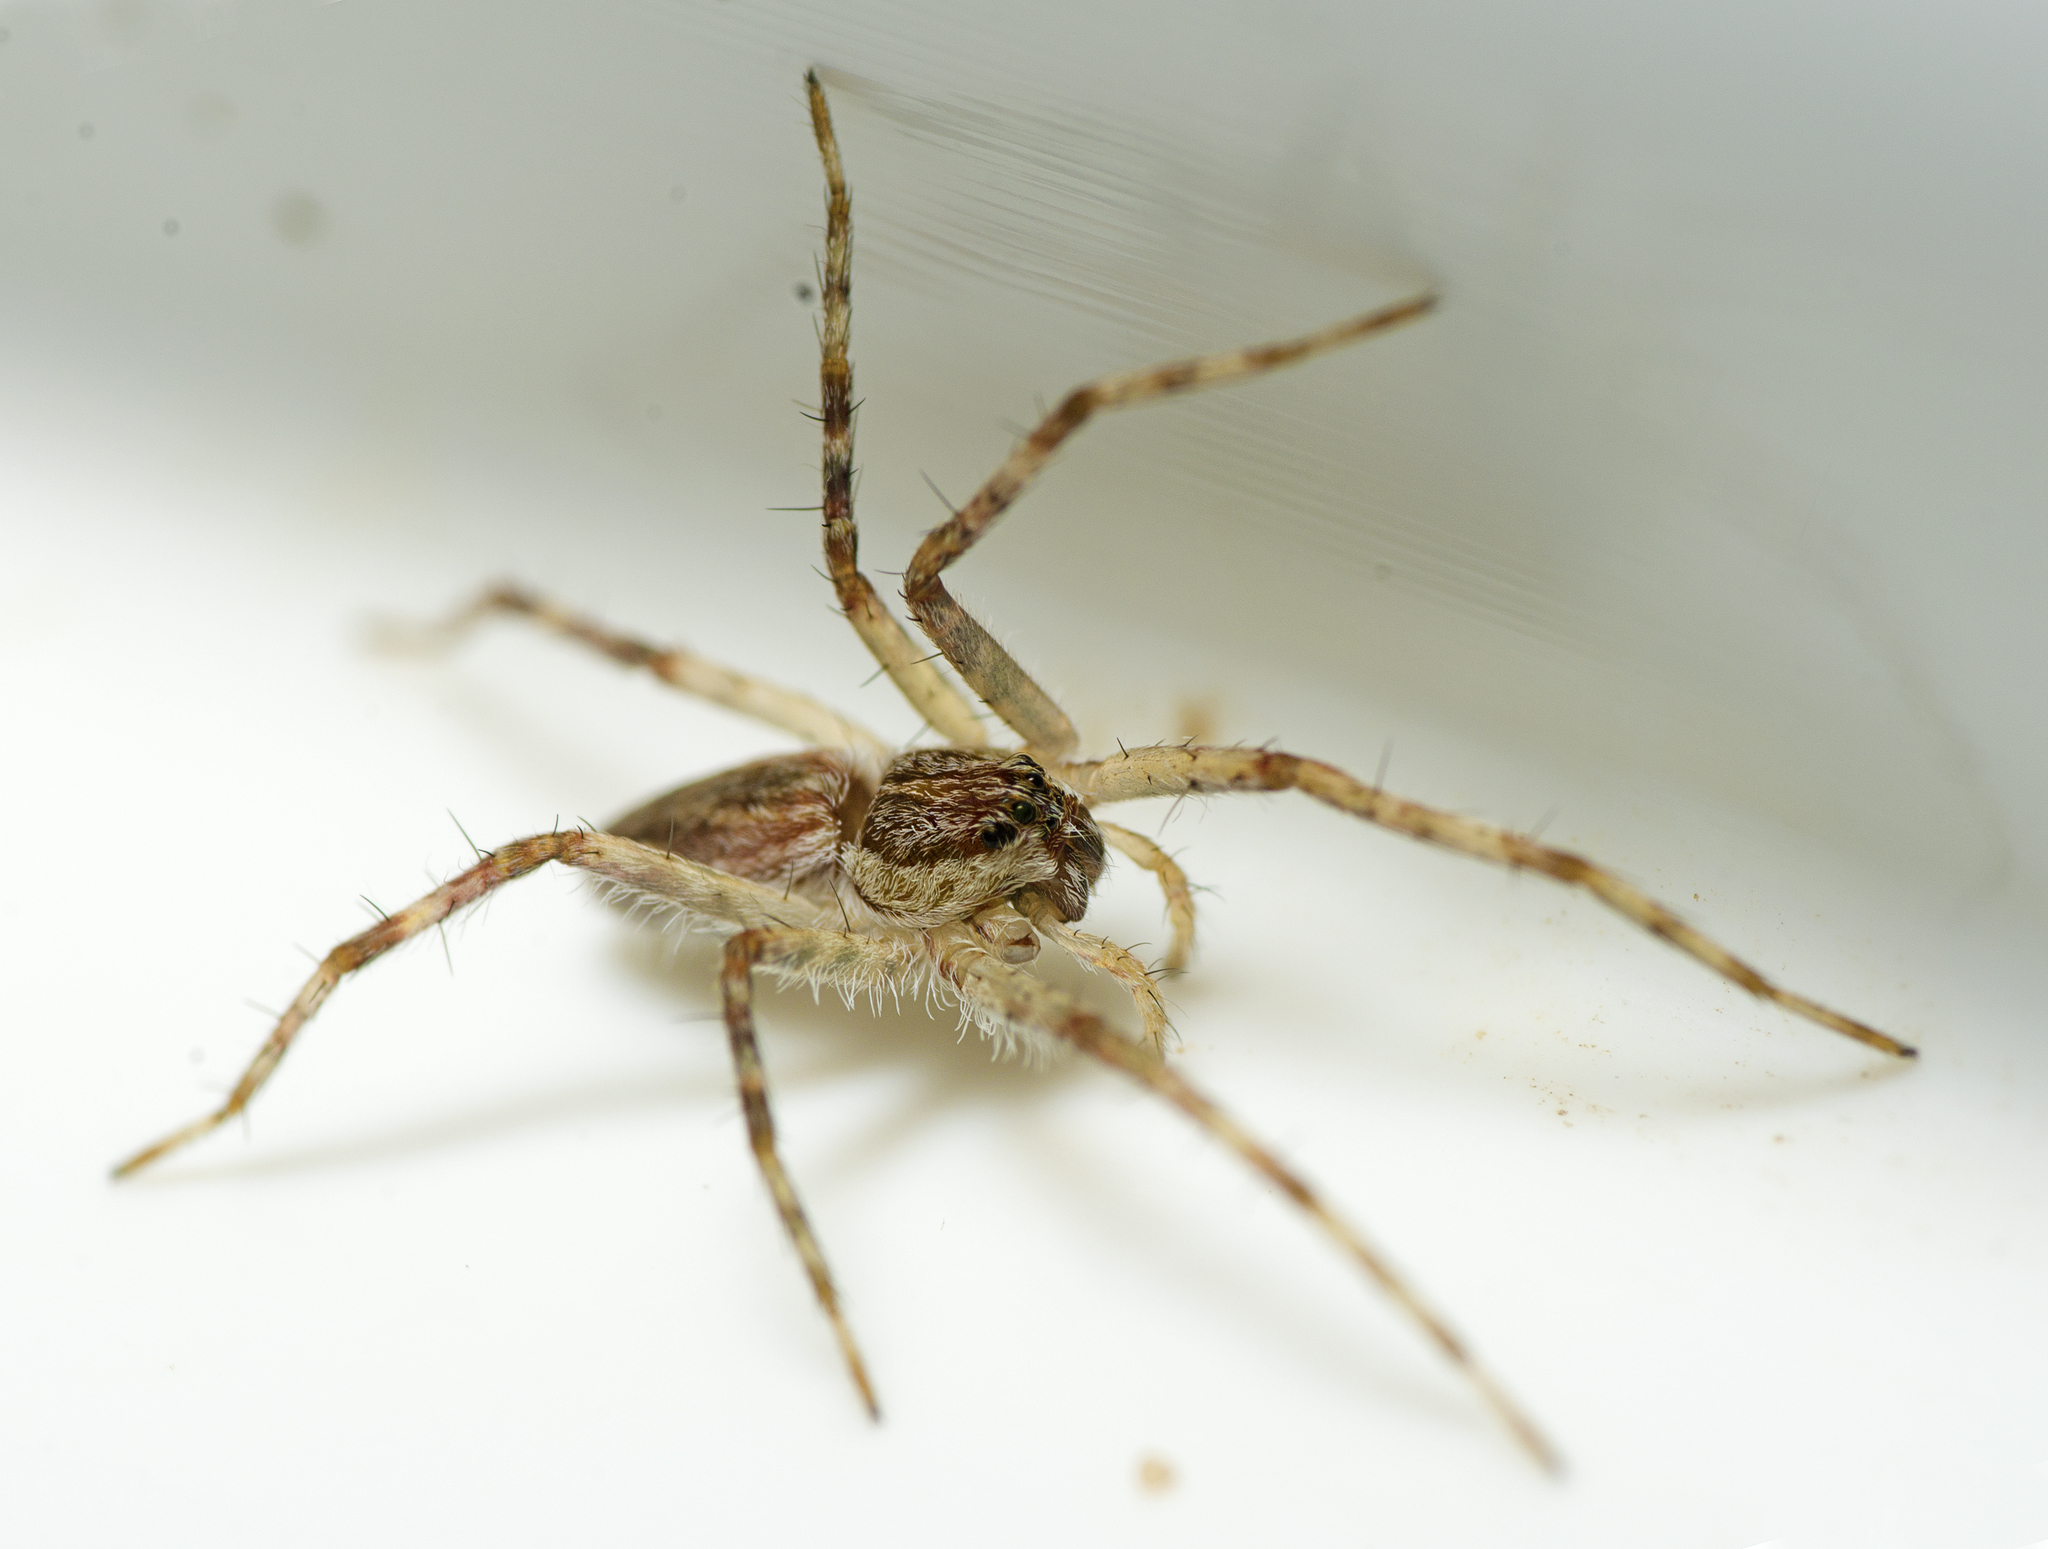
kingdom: Animalia
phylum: Arthropoda
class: Arachnida
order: Araneae
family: Pisauridae
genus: Megadolomedes
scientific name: Megadolomedes trux
